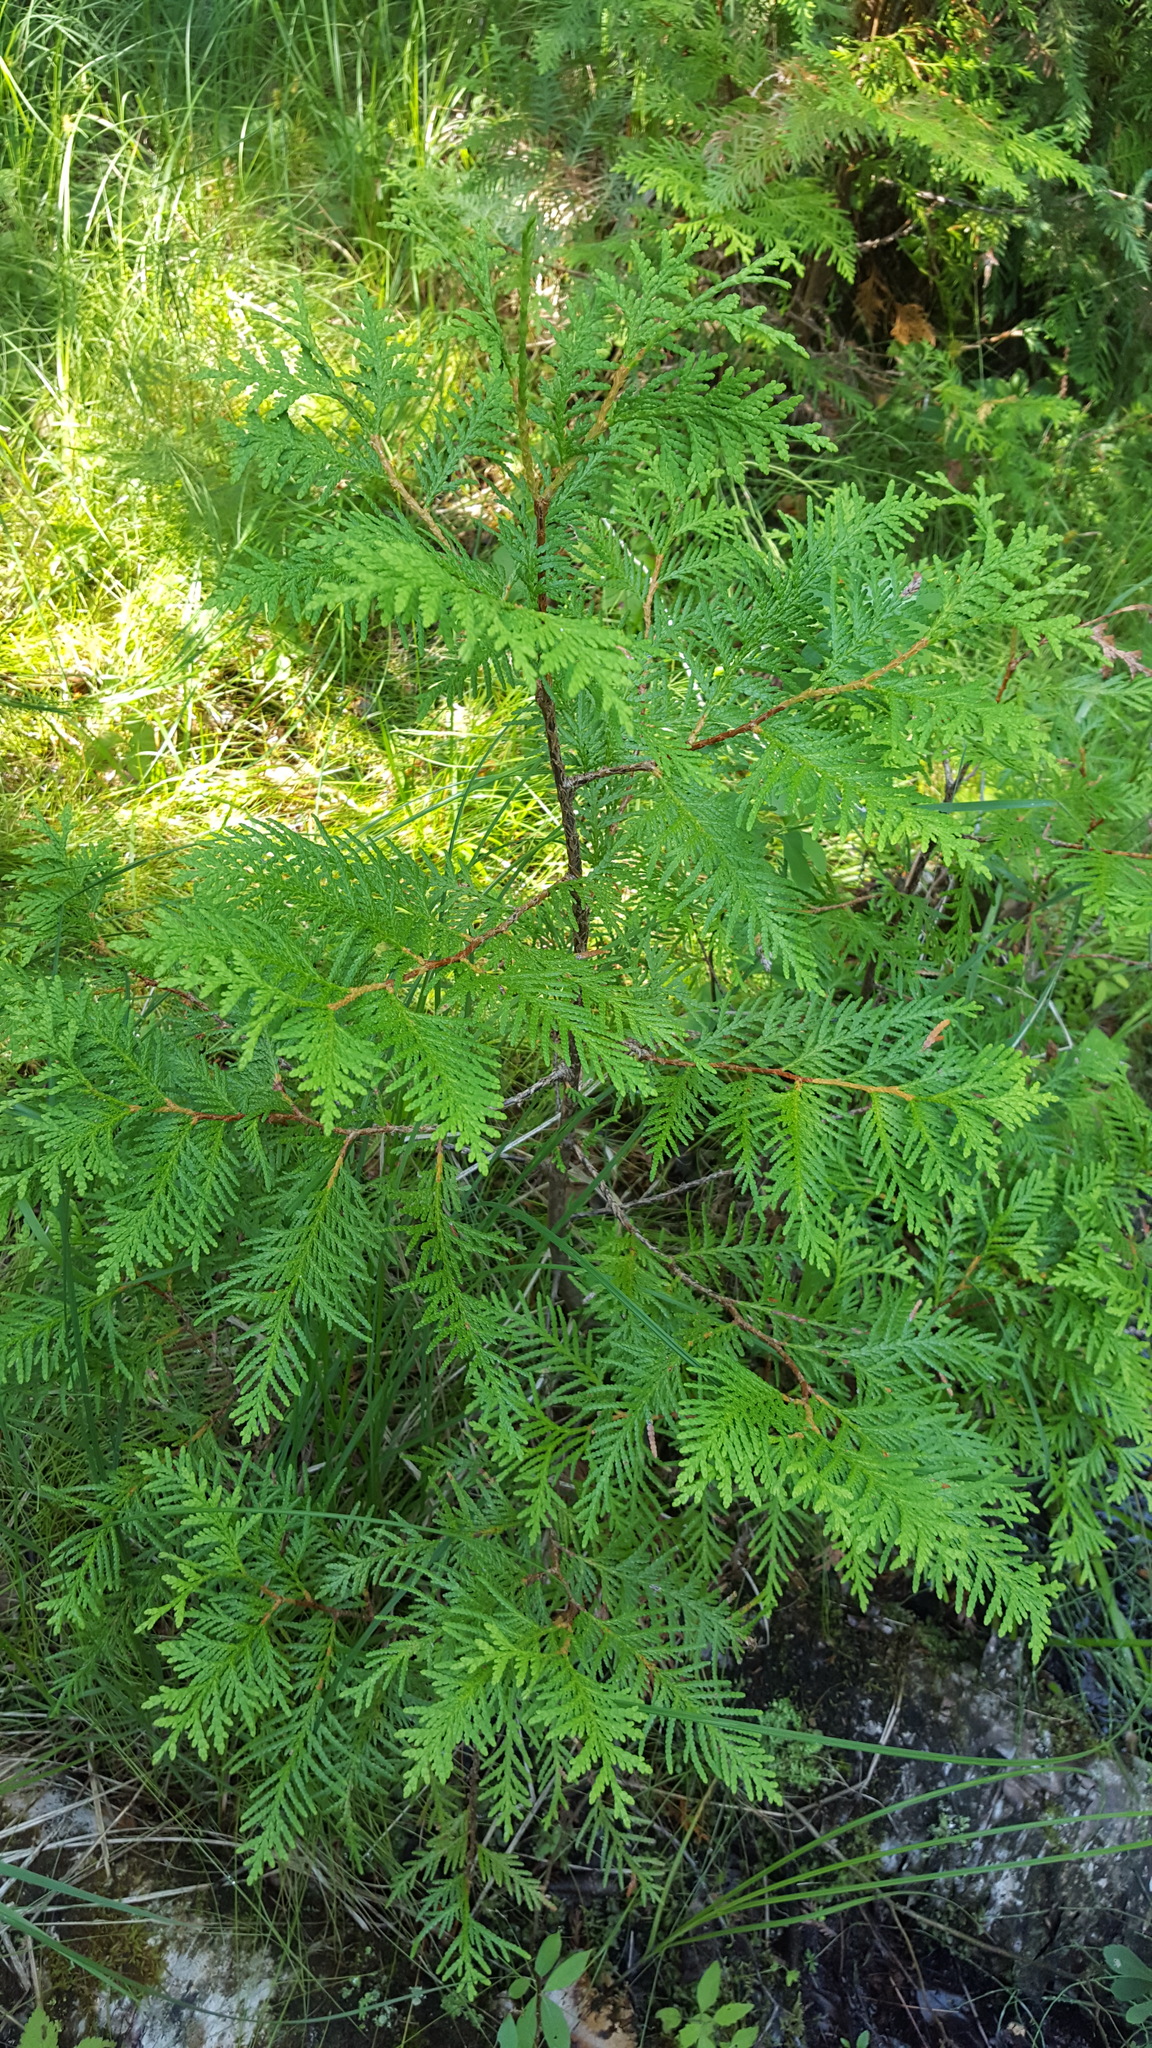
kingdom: Plantae
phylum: Tracheophyta
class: Pinopsida
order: Pinales
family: Cupressaceae
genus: Thuja
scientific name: Thuja occidentalis
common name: Northern white-cedar
